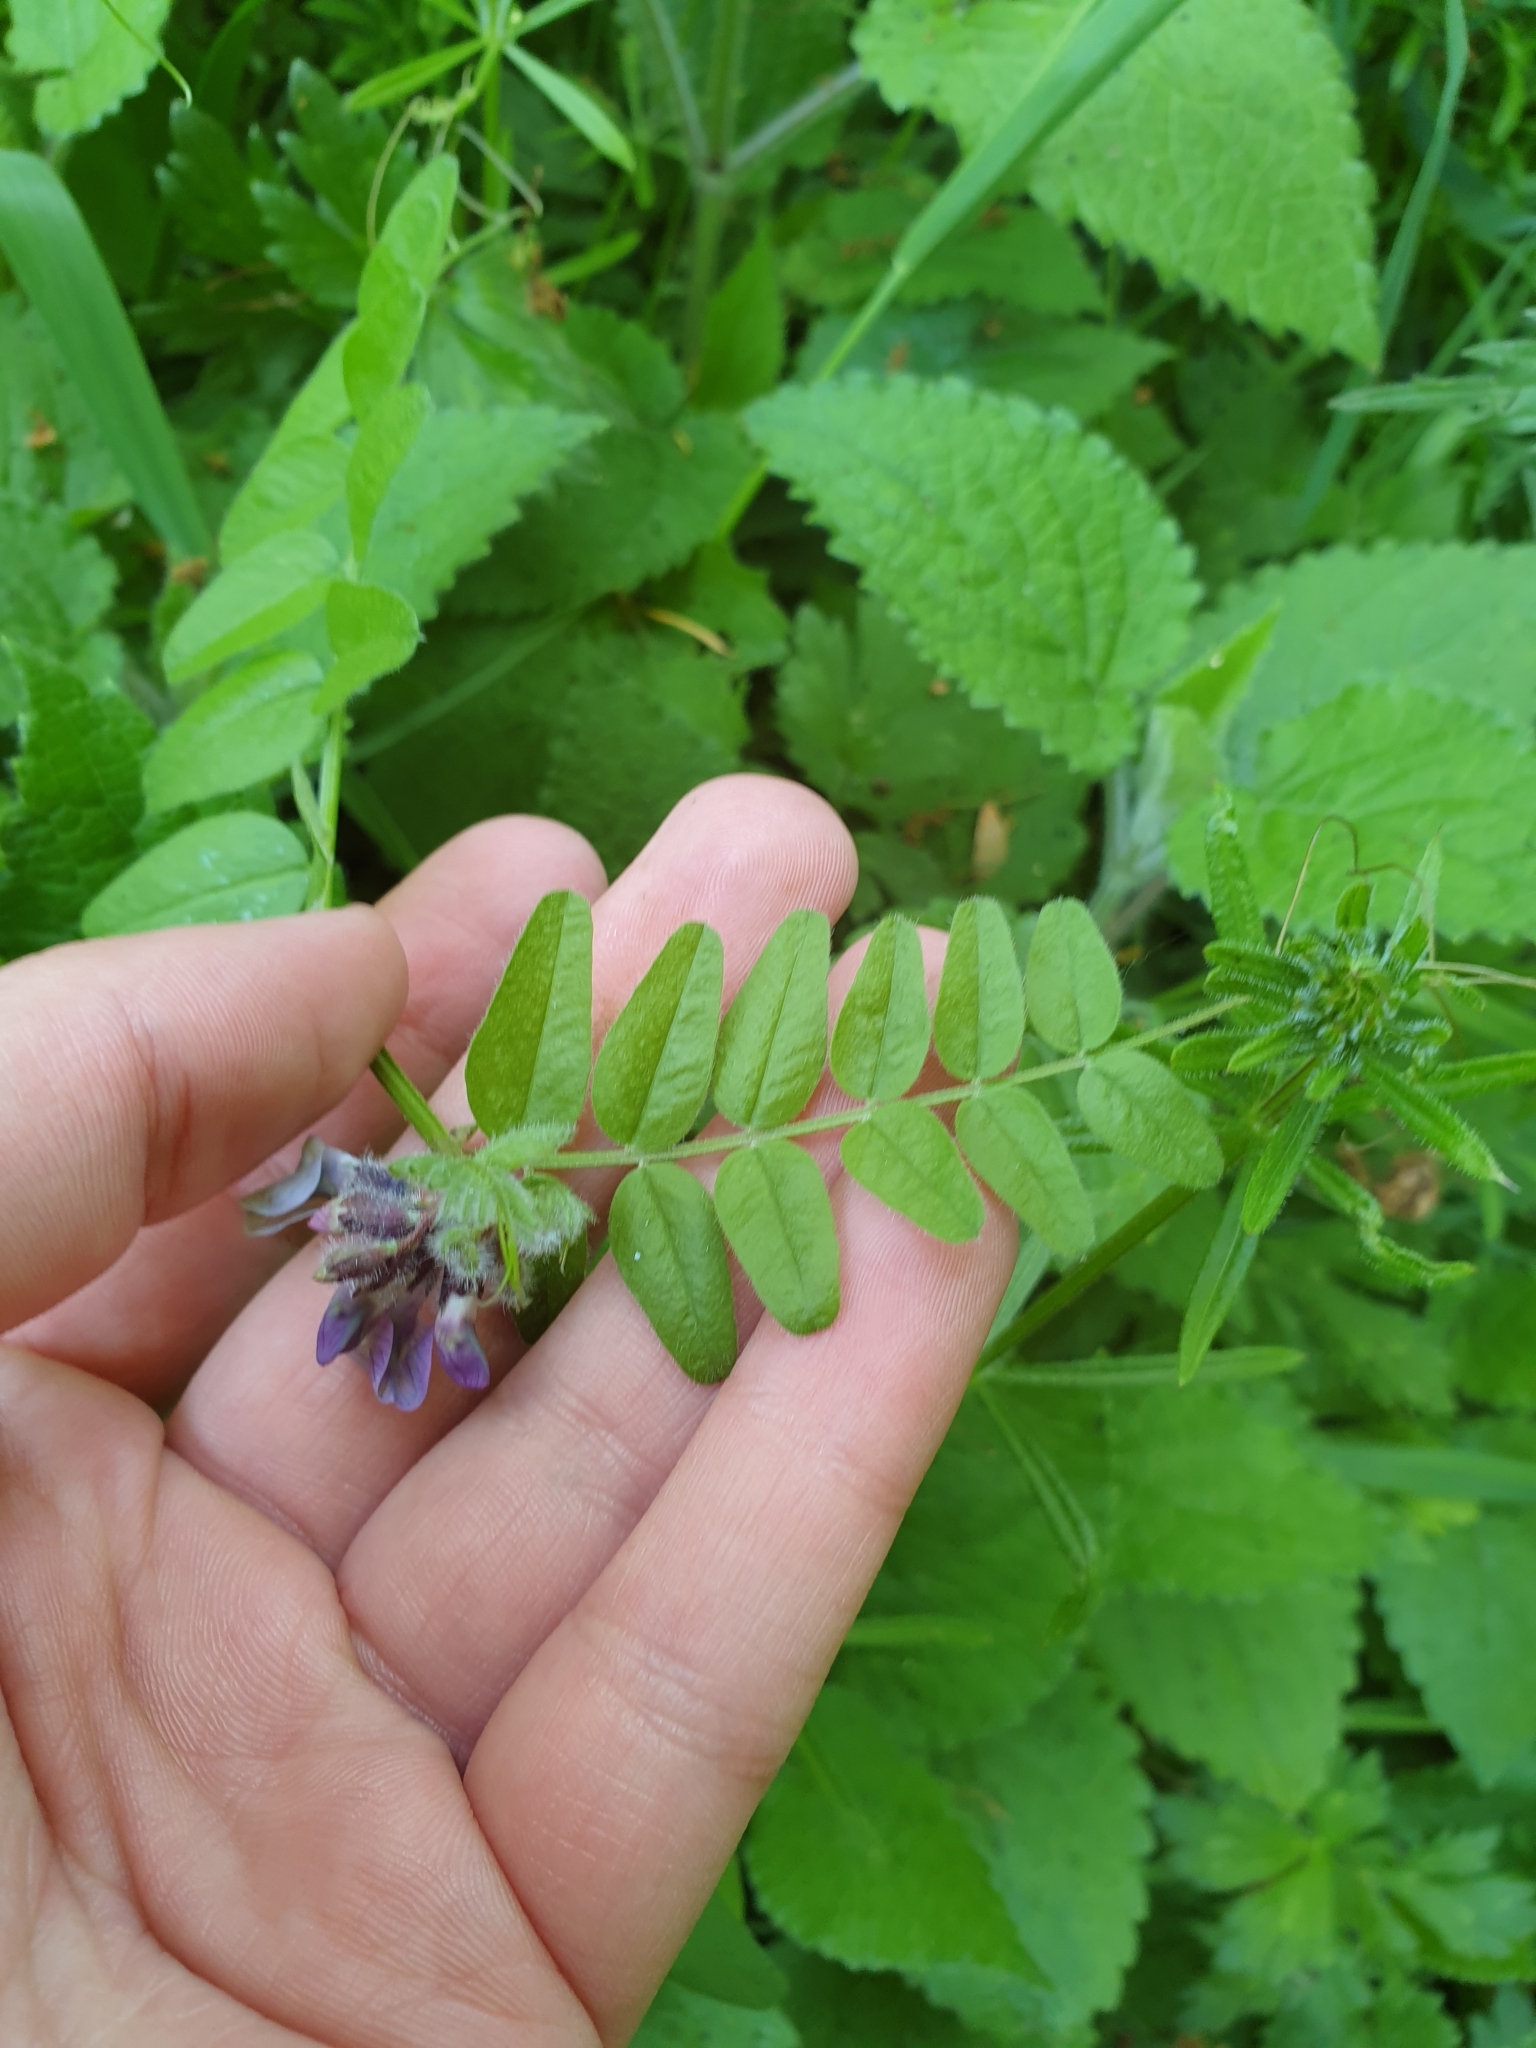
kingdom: Plantae
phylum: Tracheophyta
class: Magnoliopsida
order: Fabales
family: Fabaceae
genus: Vicia
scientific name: Vicia sepium
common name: Bush vetch
